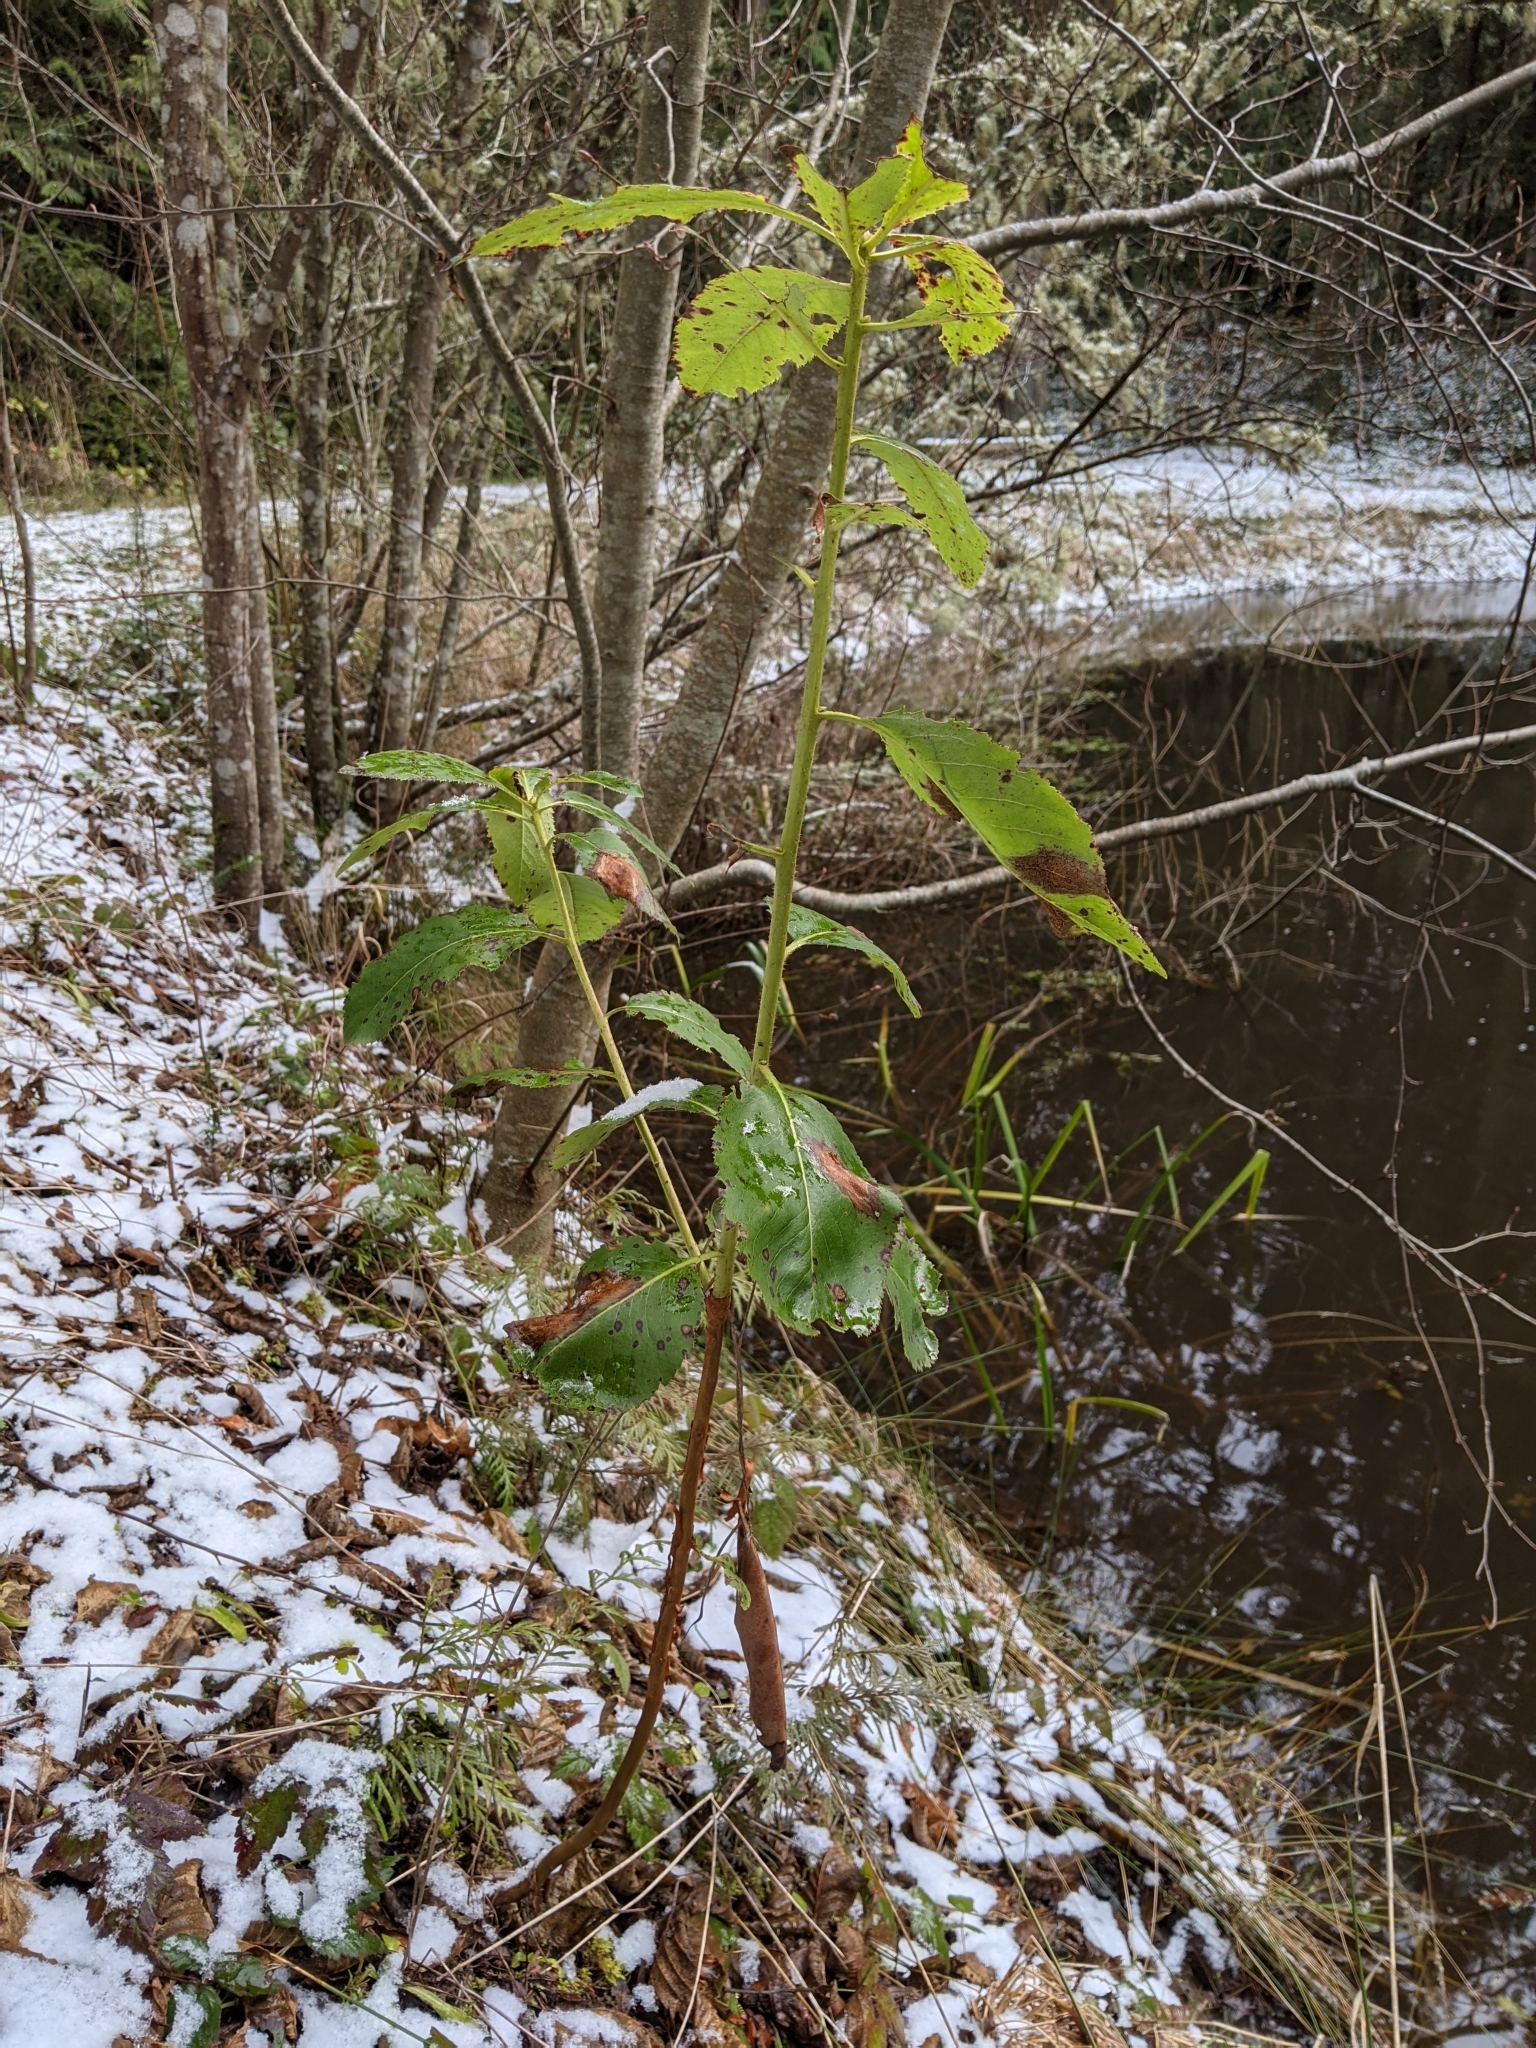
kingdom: Plantae
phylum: Tracheophyta
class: Magnoliopsida
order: Ericales
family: Ericaceae
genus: Arbutus
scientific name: Arbutus menziesii
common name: Pacific madrone
